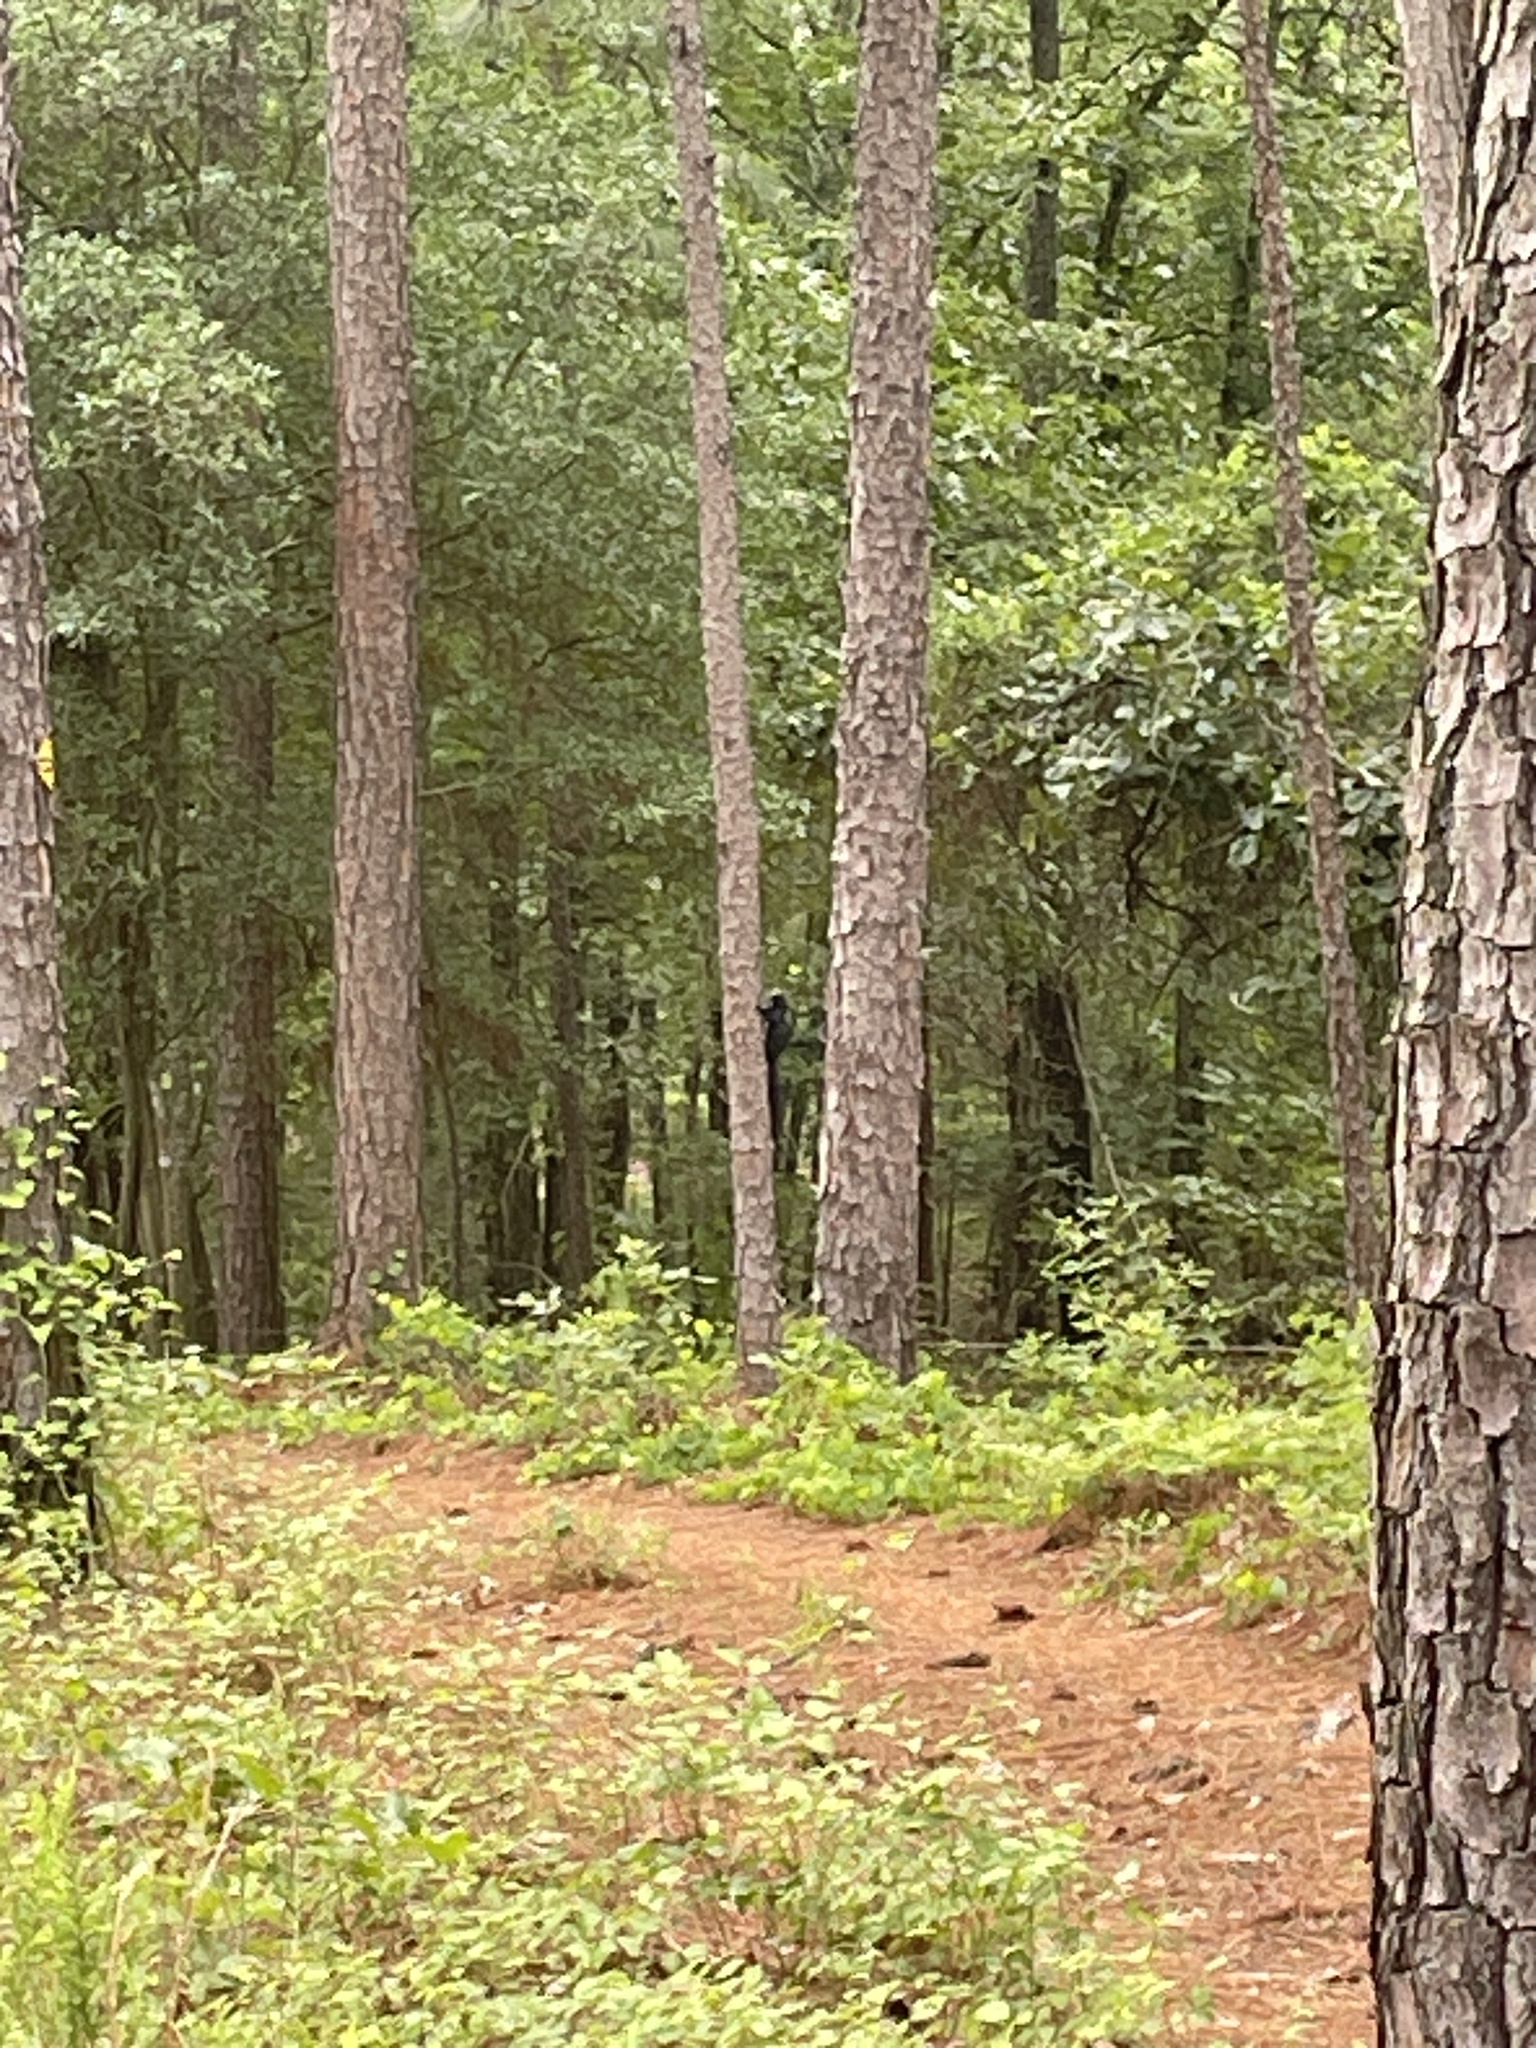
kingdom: Animalia
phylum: Chordata
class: Mammalia
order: Rodentia
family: Sciuridae
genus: Sciurus
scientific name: Sciurus niger
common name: Fox squirrel
